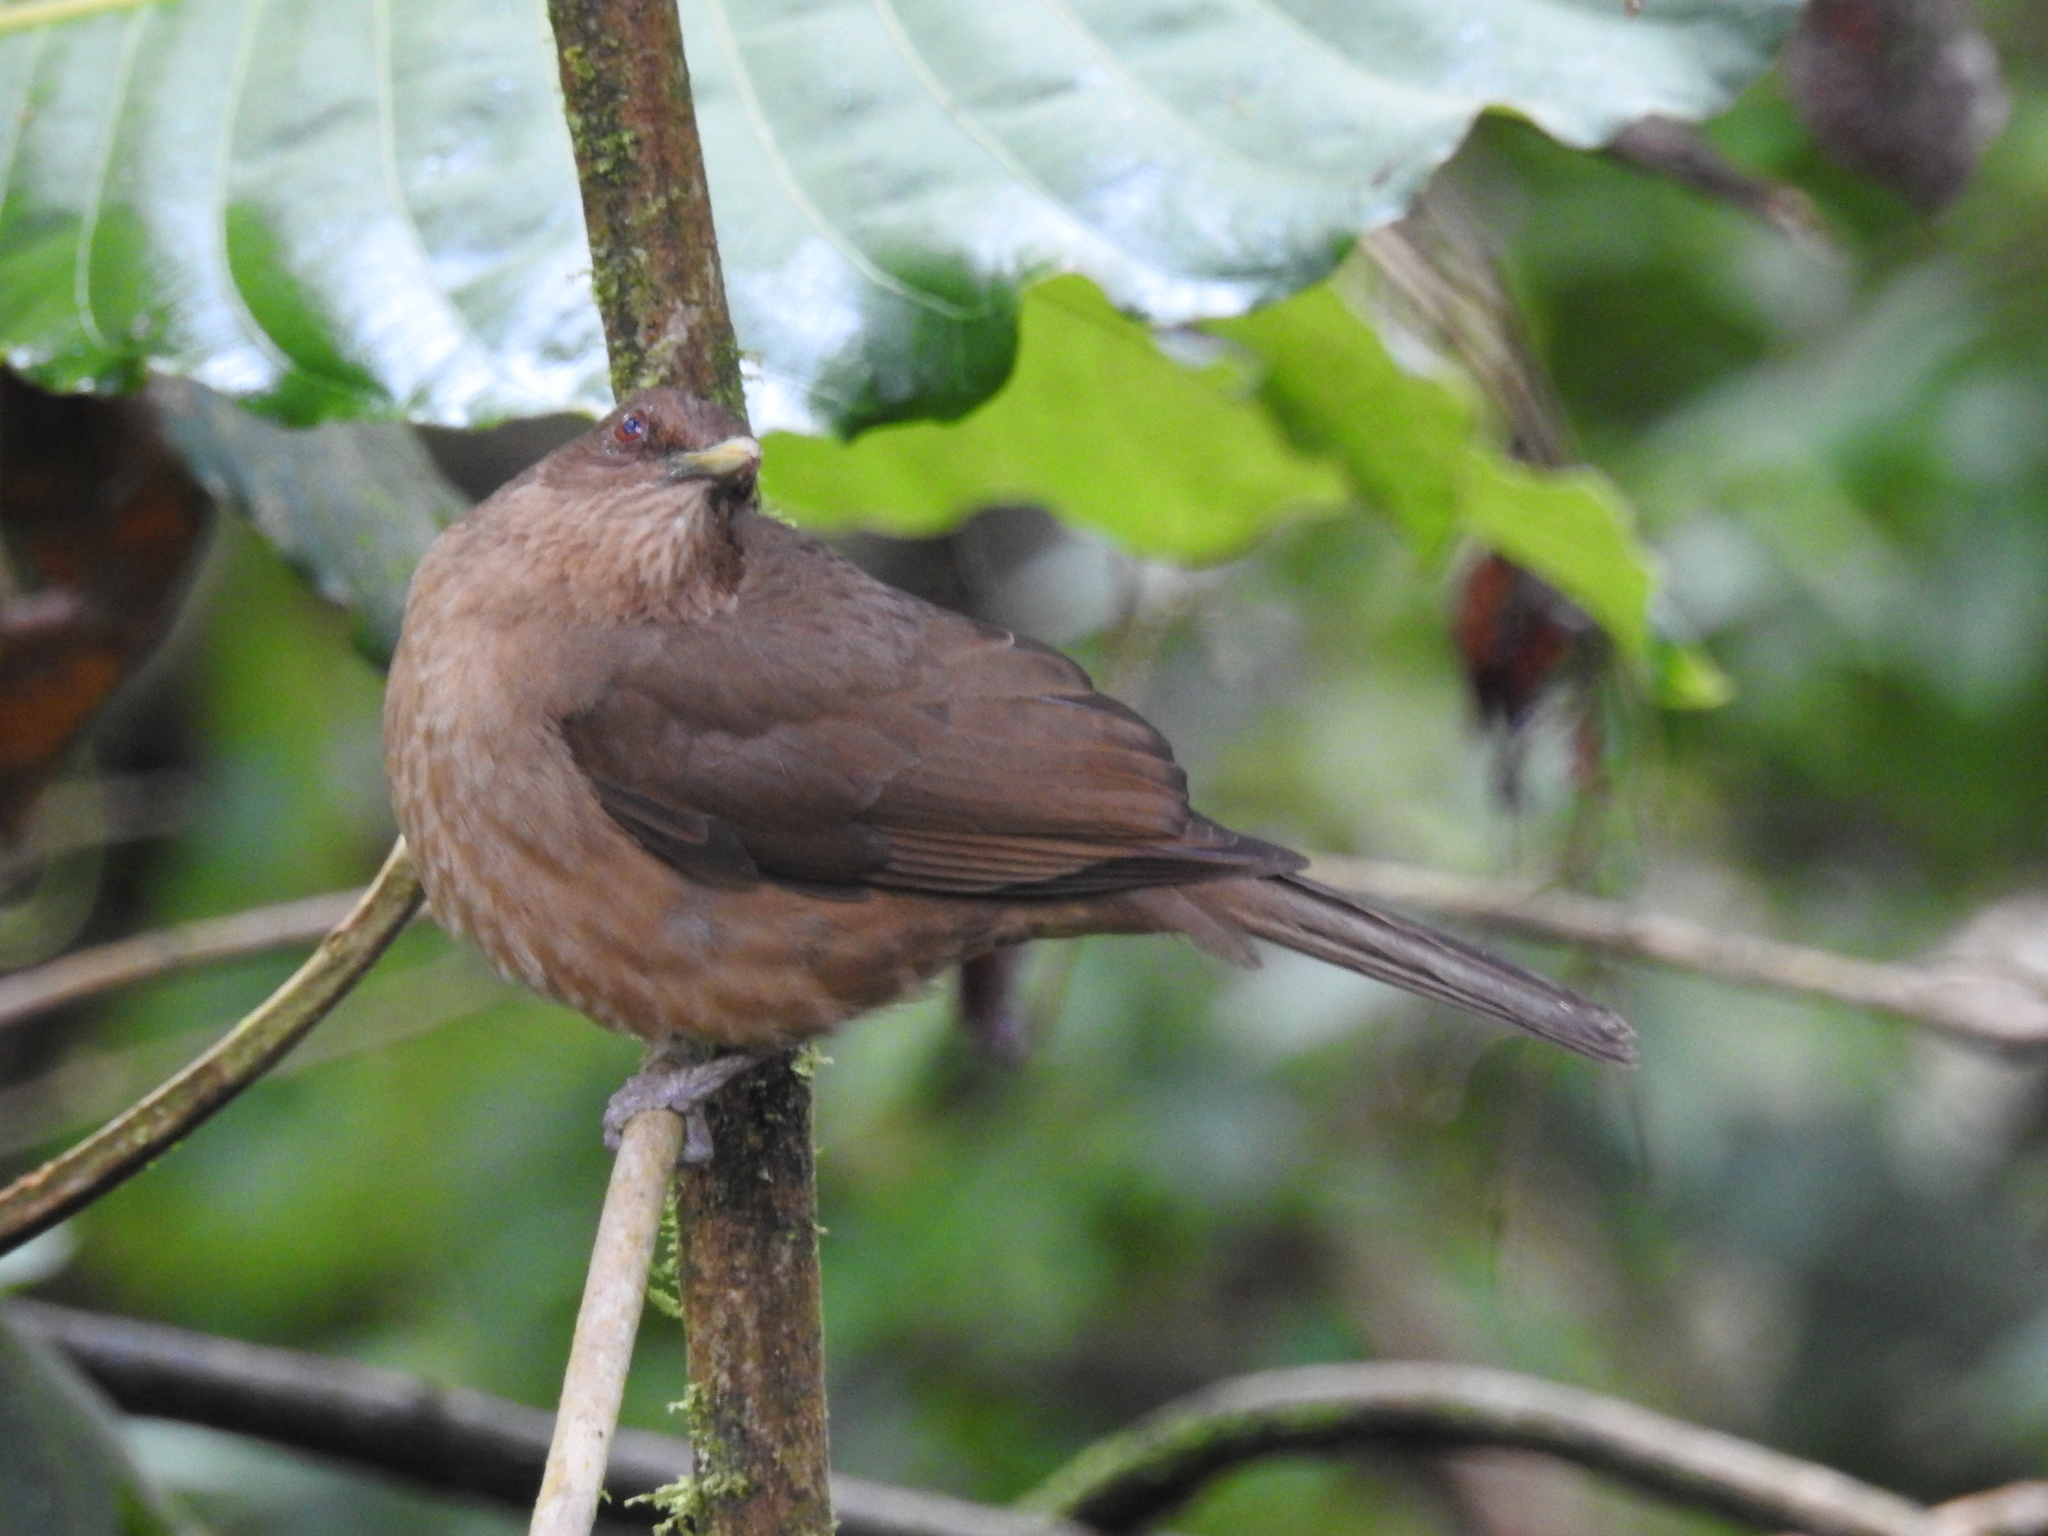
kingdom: Animalia
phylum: Chordata
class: Aves
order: Passeriformes
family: Turdidae
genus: Turdus
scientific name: Turdus grayi
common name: Clay-colored thrush
